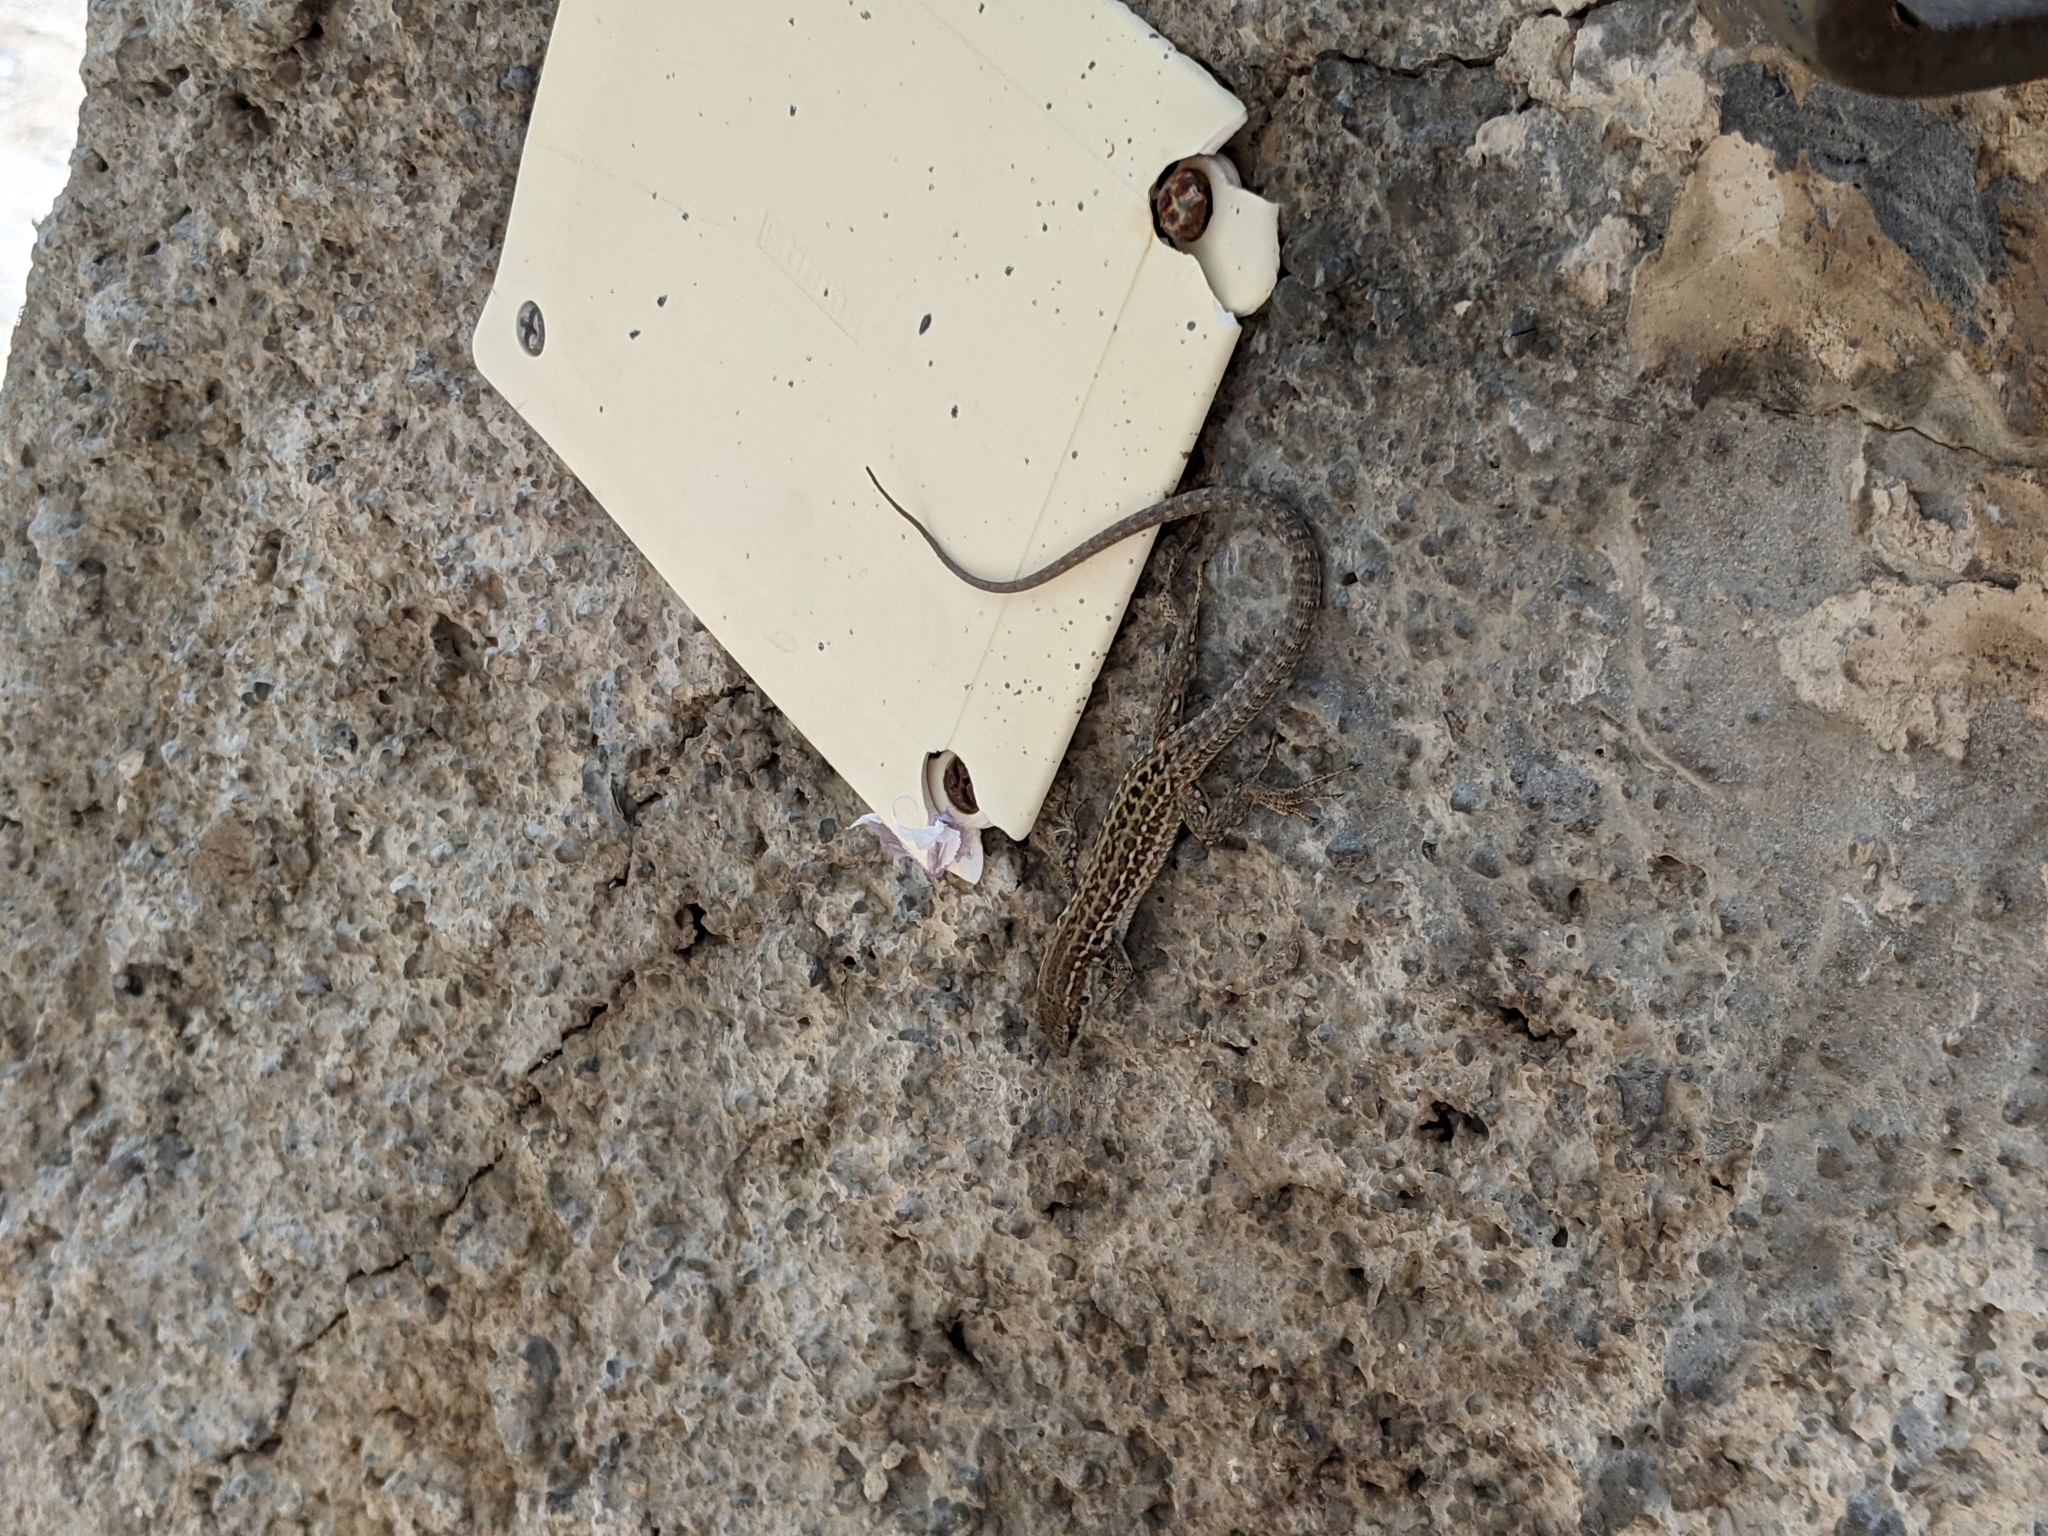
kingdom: Animalia
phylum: Chordata
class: Squamata
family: Lacertidae
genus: Podarcis
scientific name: Podarcis siculus
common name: Italian wall lizard
